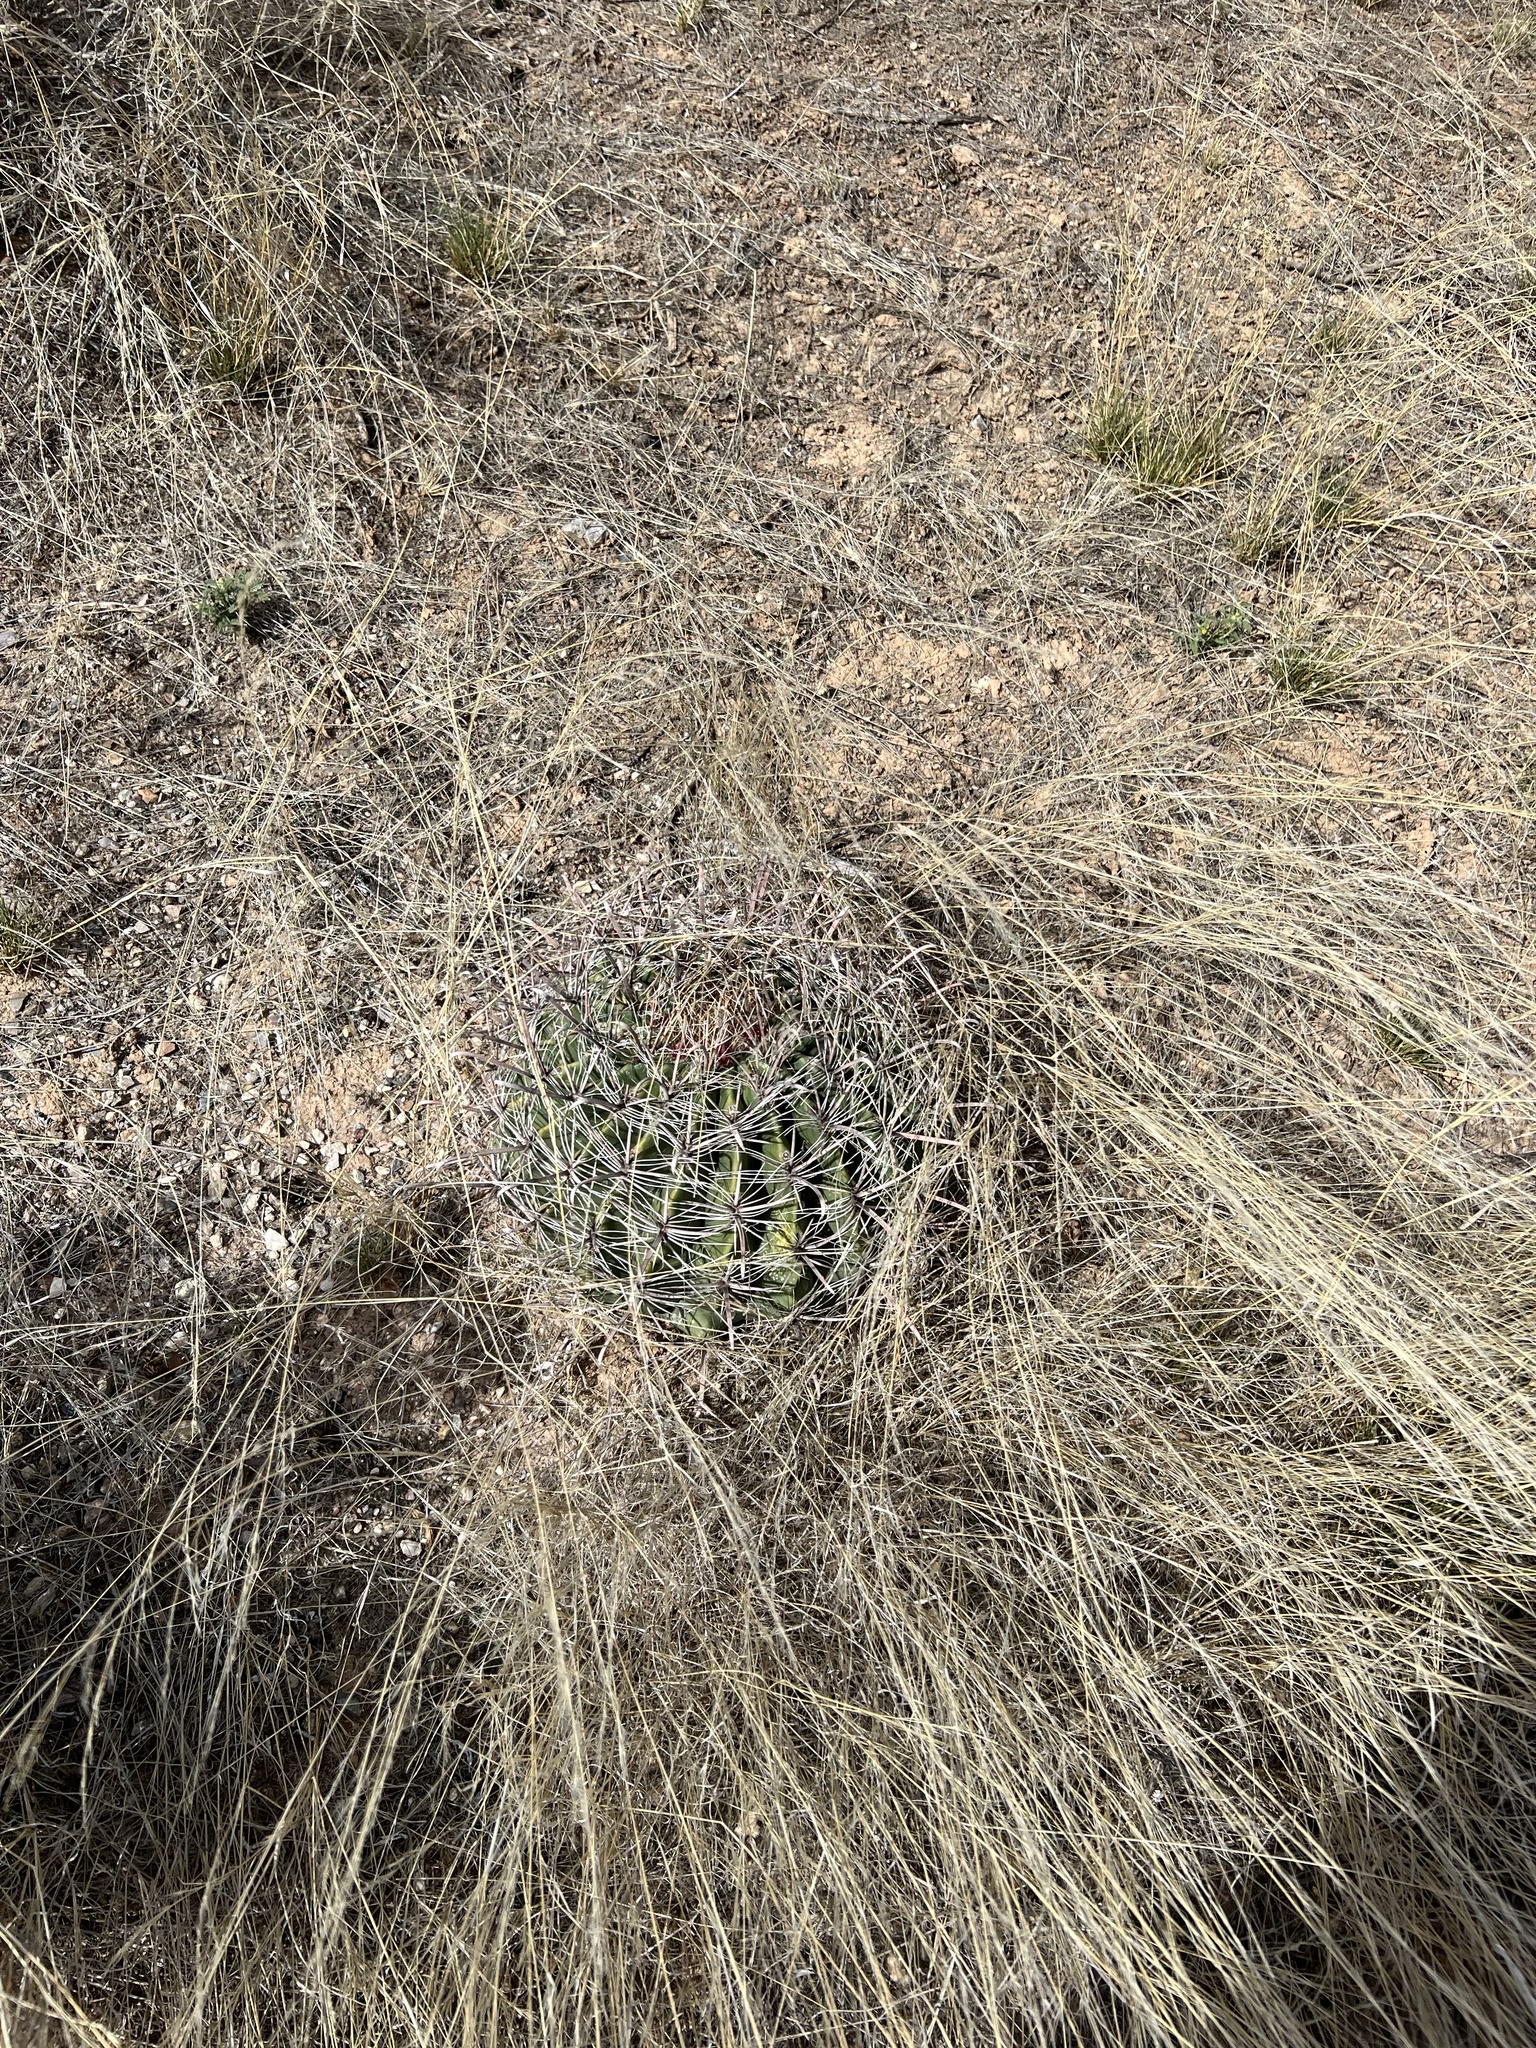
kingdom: Plantae
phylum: Tracheophyta
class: Magnoliopsida
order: Caryophyllales
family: Cactaceae
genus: Ferocactus
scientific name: Ferocactus wislizeni
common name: Candy barrel cactus
